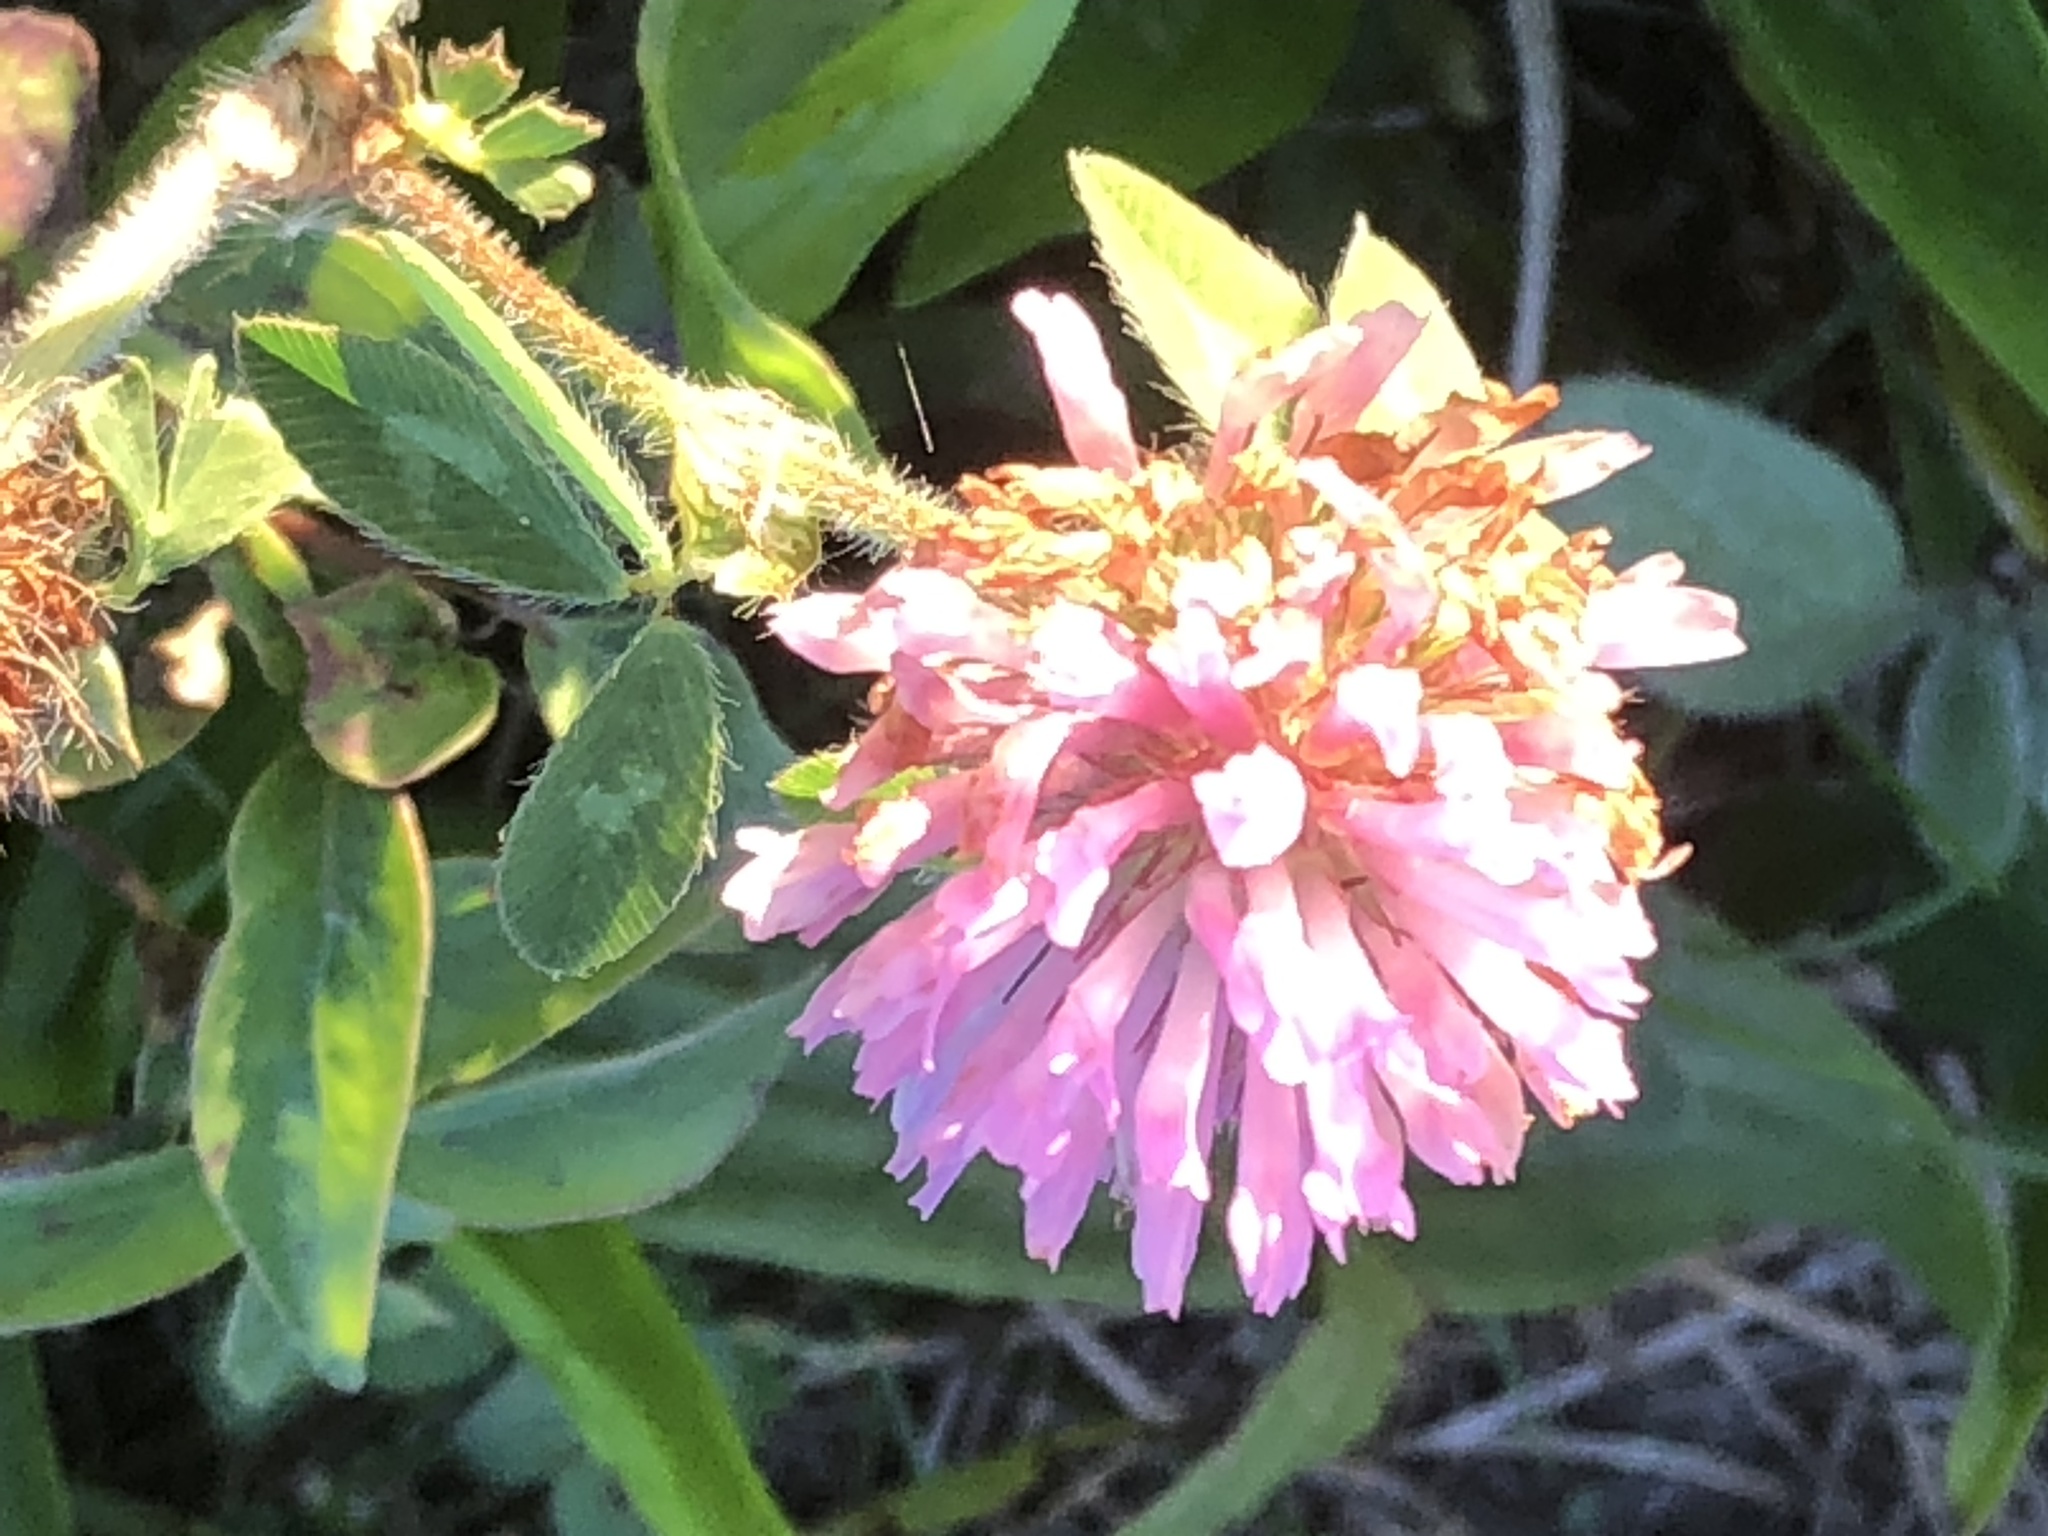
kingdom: Plantae
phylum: Tracheophyta
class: Magnoliopsida
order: Fabales
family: Fabaceae
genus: Trifolium
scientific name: Trifolium pratense
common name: Red clover
